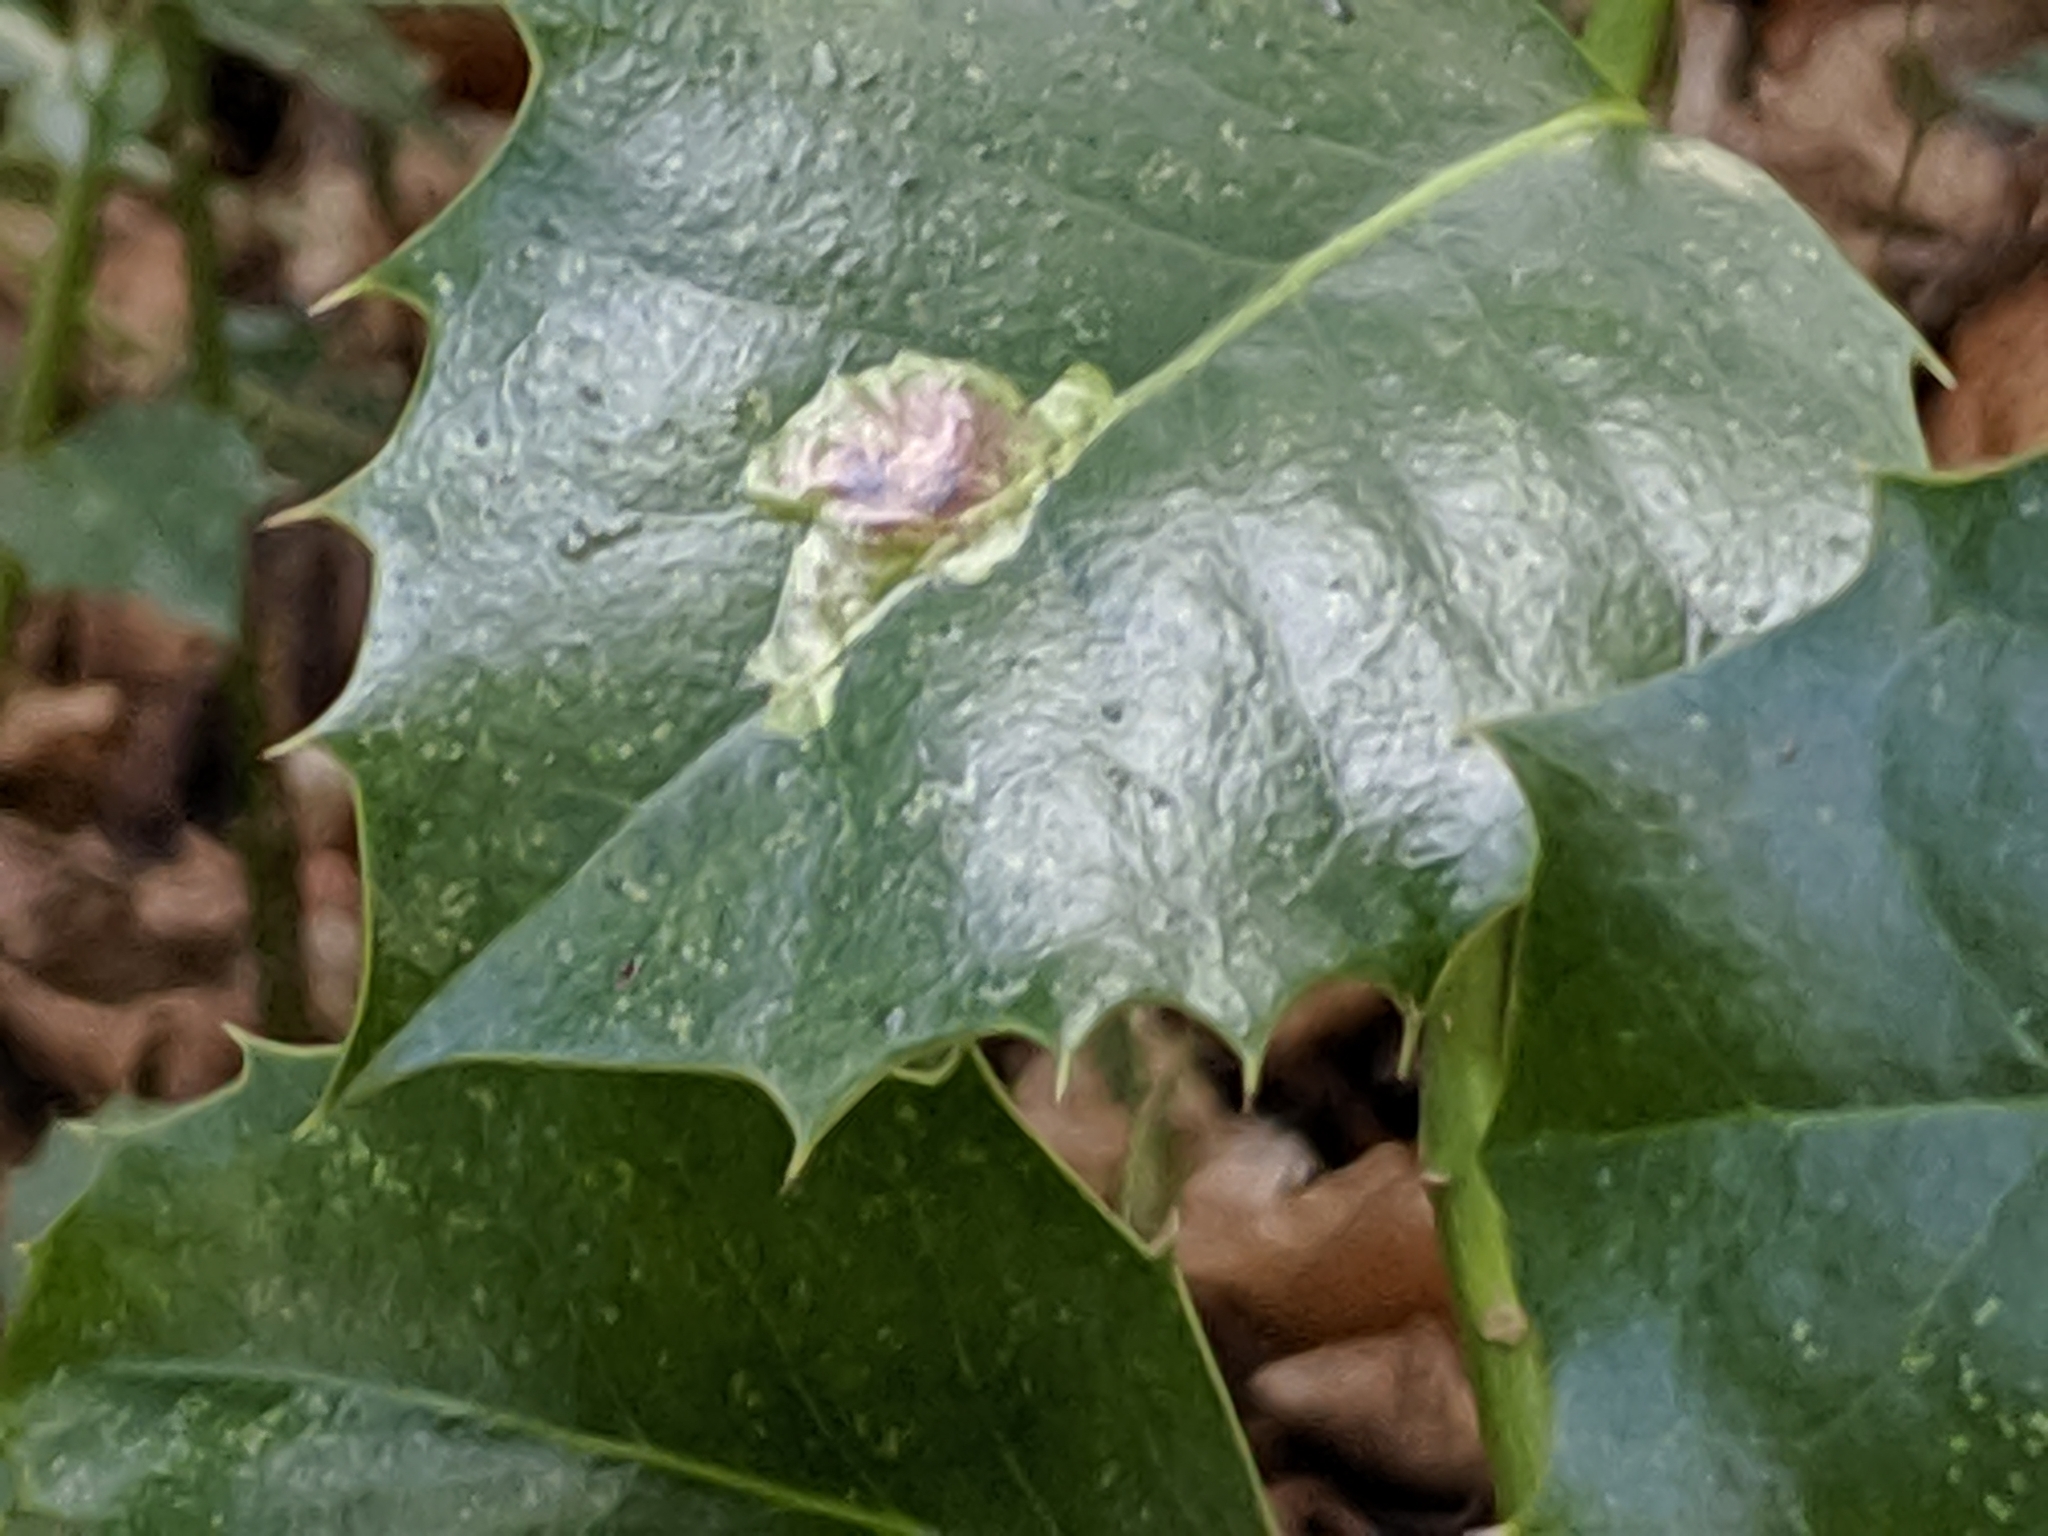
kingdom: Animalia
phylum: Arthropoda
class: Insecta
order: Diptera
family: Agromyzidae
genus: Phytomyza
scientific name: Phytomyza ilicis
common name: Holly leafminer
